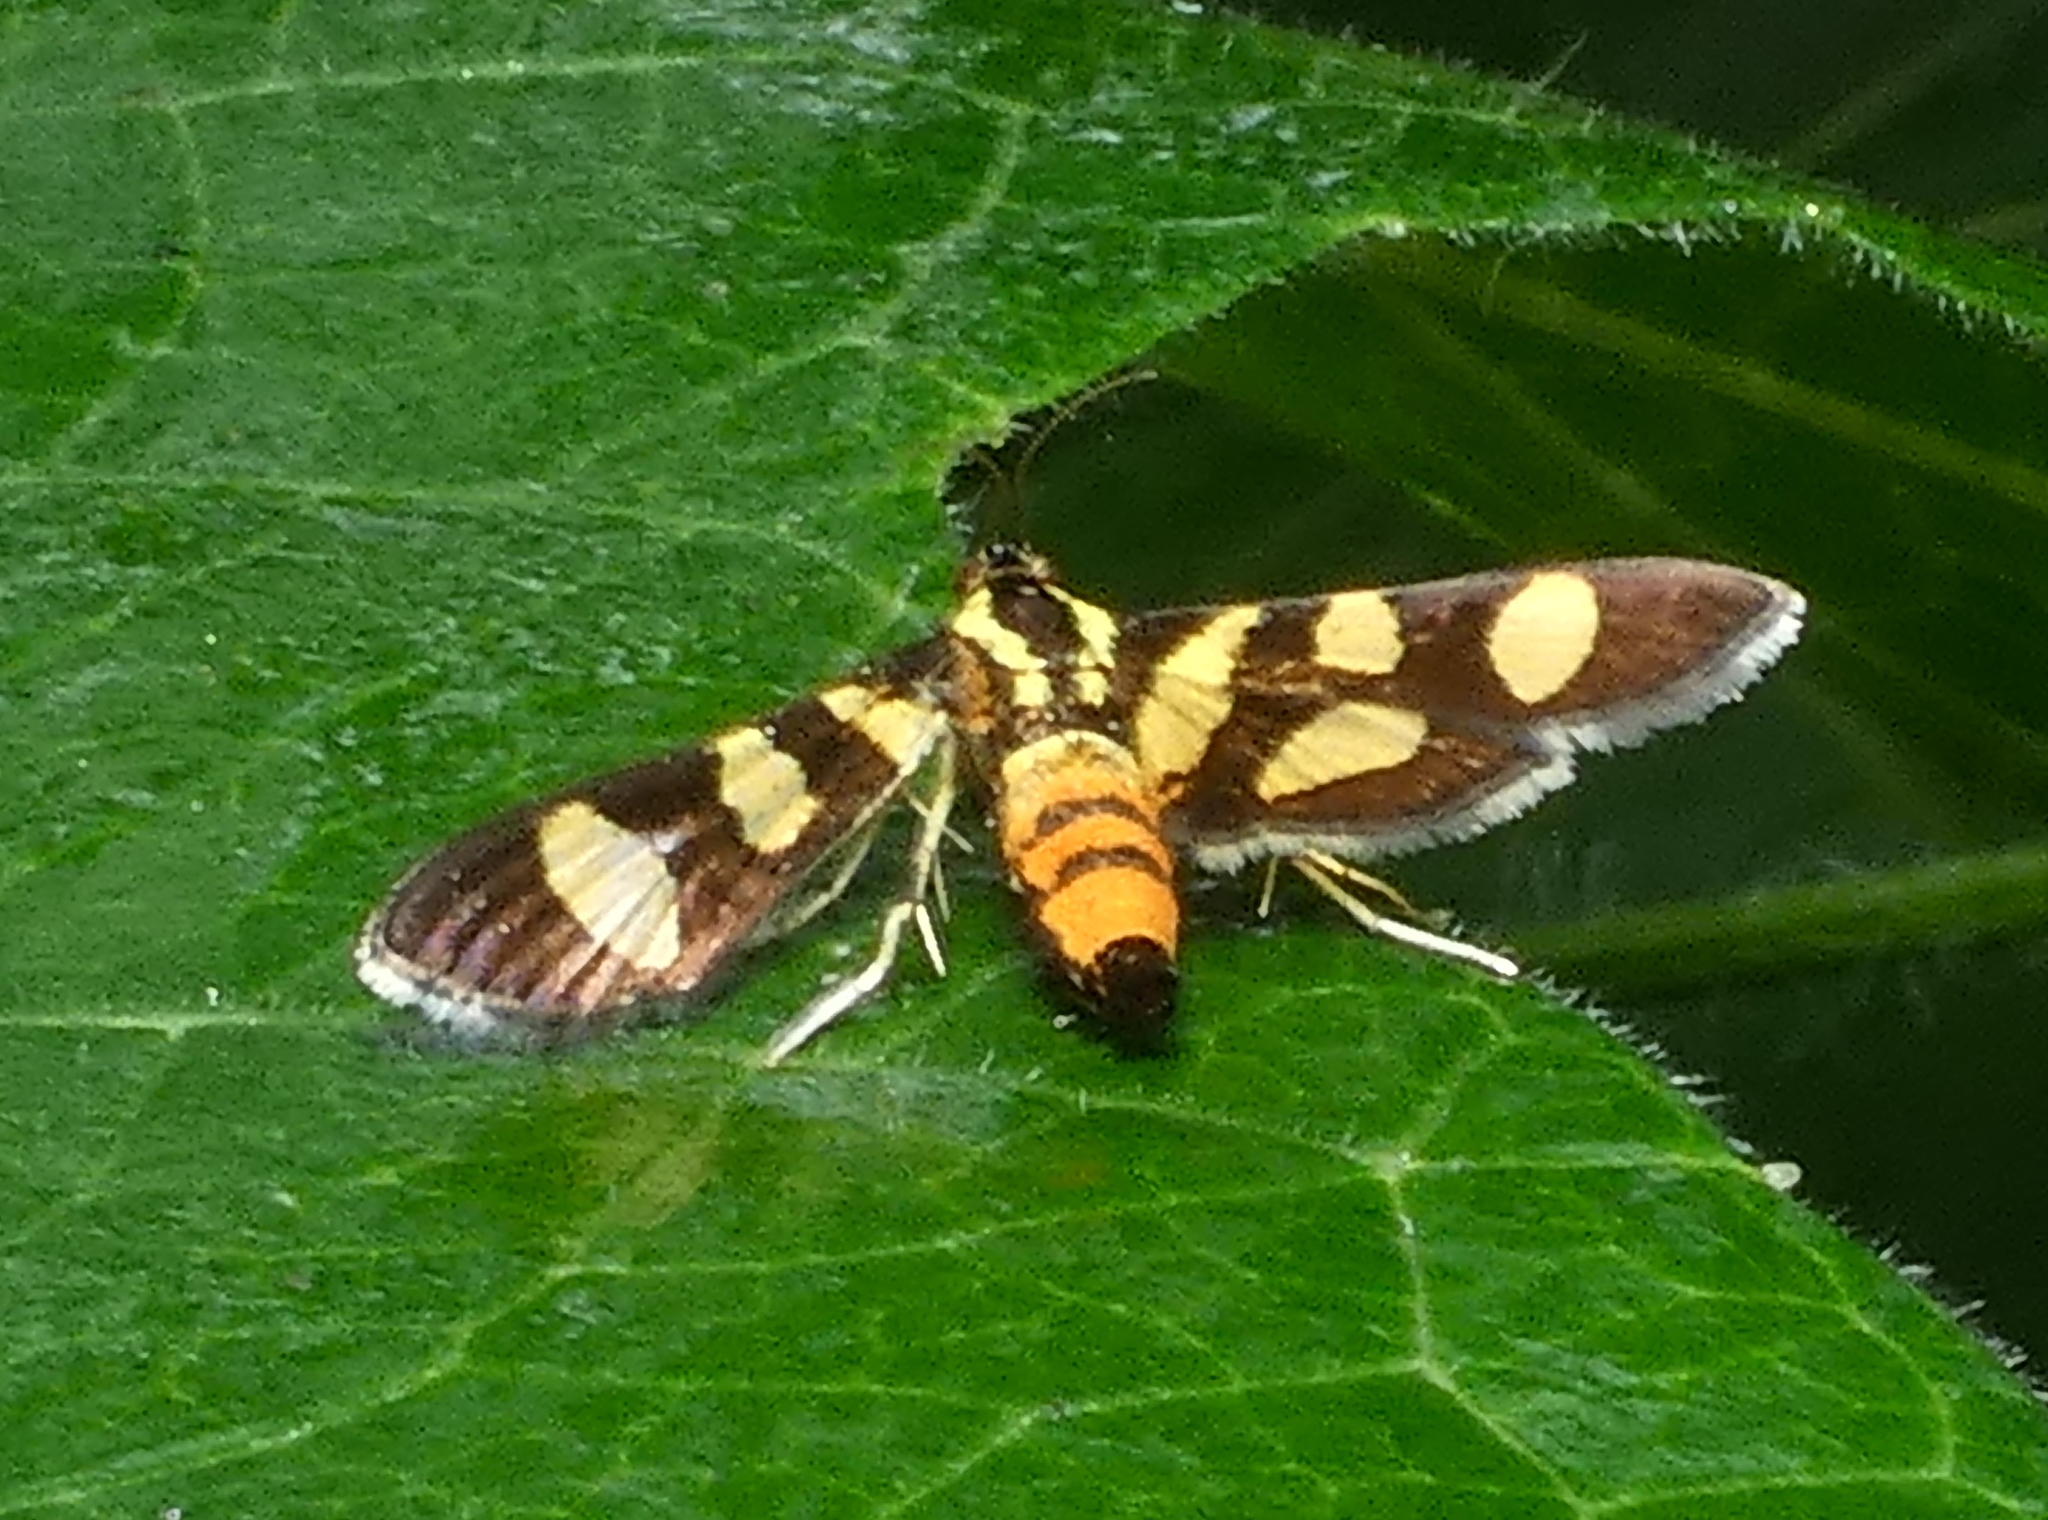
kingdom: Animalia
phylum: Arthropoda
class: Insecta
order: Lepidoptera
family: Crambidae
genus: Syngamia
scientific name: Syngamia florella
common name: Orange-spotted flower moth
